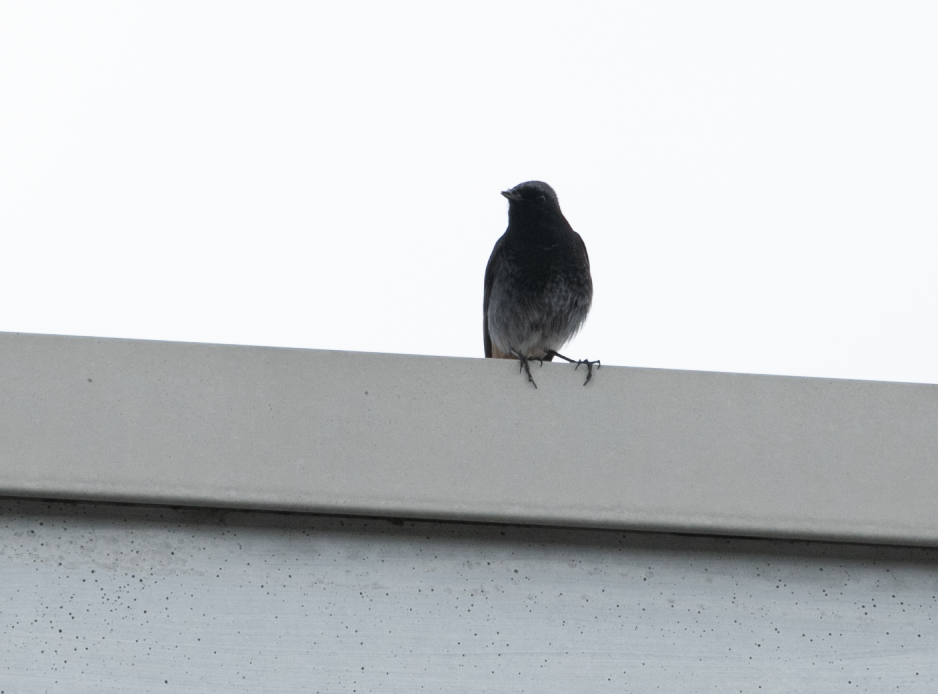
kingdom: Animalia
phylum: Chordata
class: Aves
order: Passeriformes
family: Muscicapidae
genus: Phoenicurus
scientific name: Phoenicurus ochruros
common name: Black redstart
